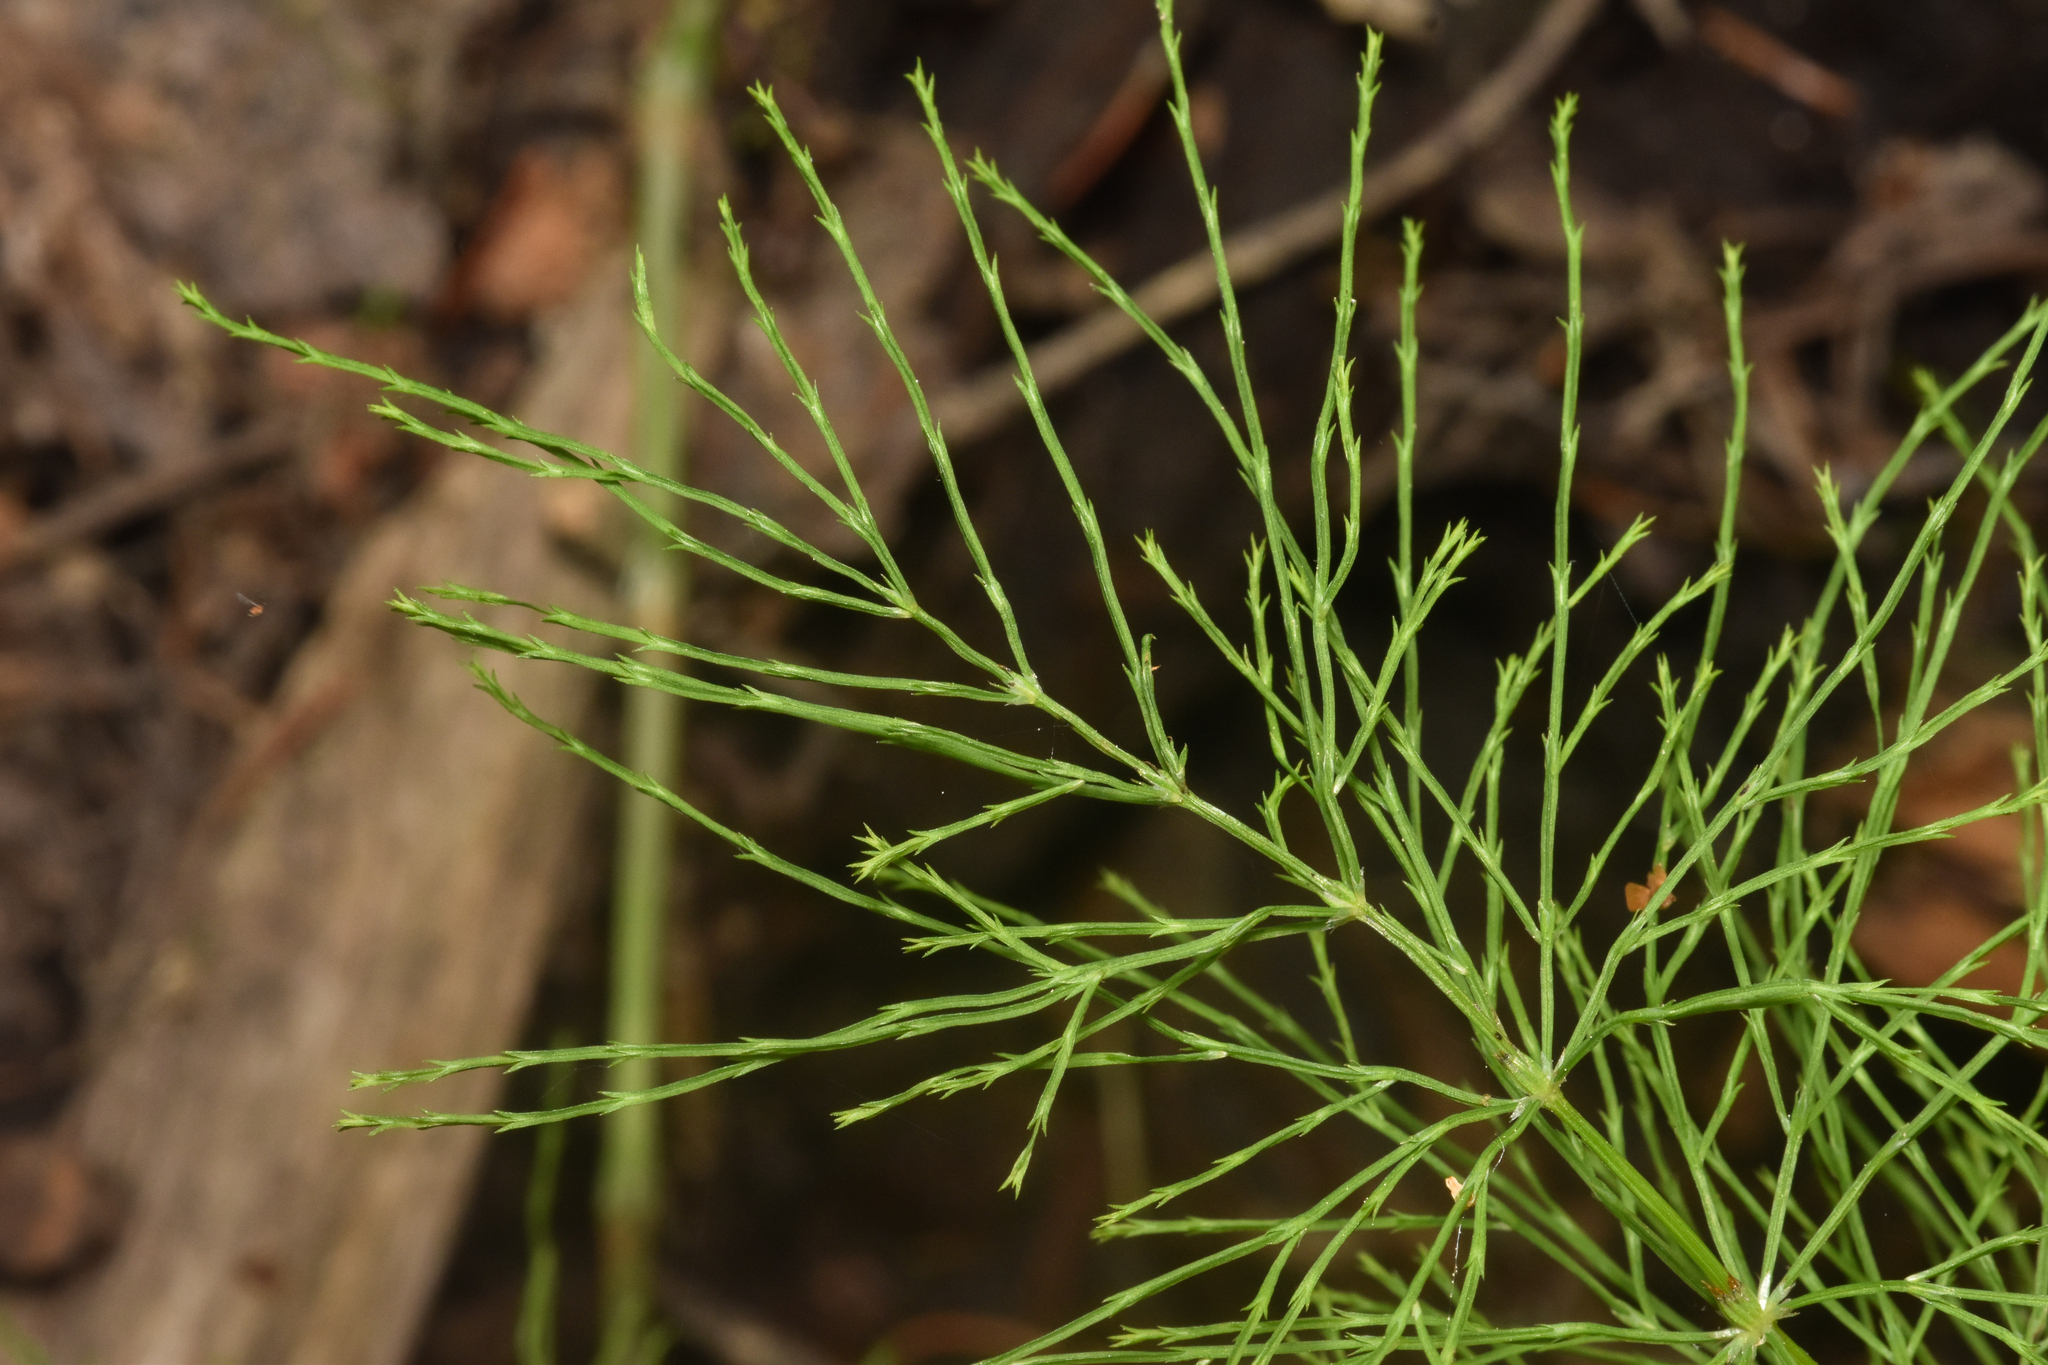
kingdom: Plantae
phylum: Tracheophyta
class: Polypodiopsida
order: Equisetales
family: Equisetaceae
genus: Equisetum
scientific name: Equisetum sylvaticum
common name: Wood horsetail
